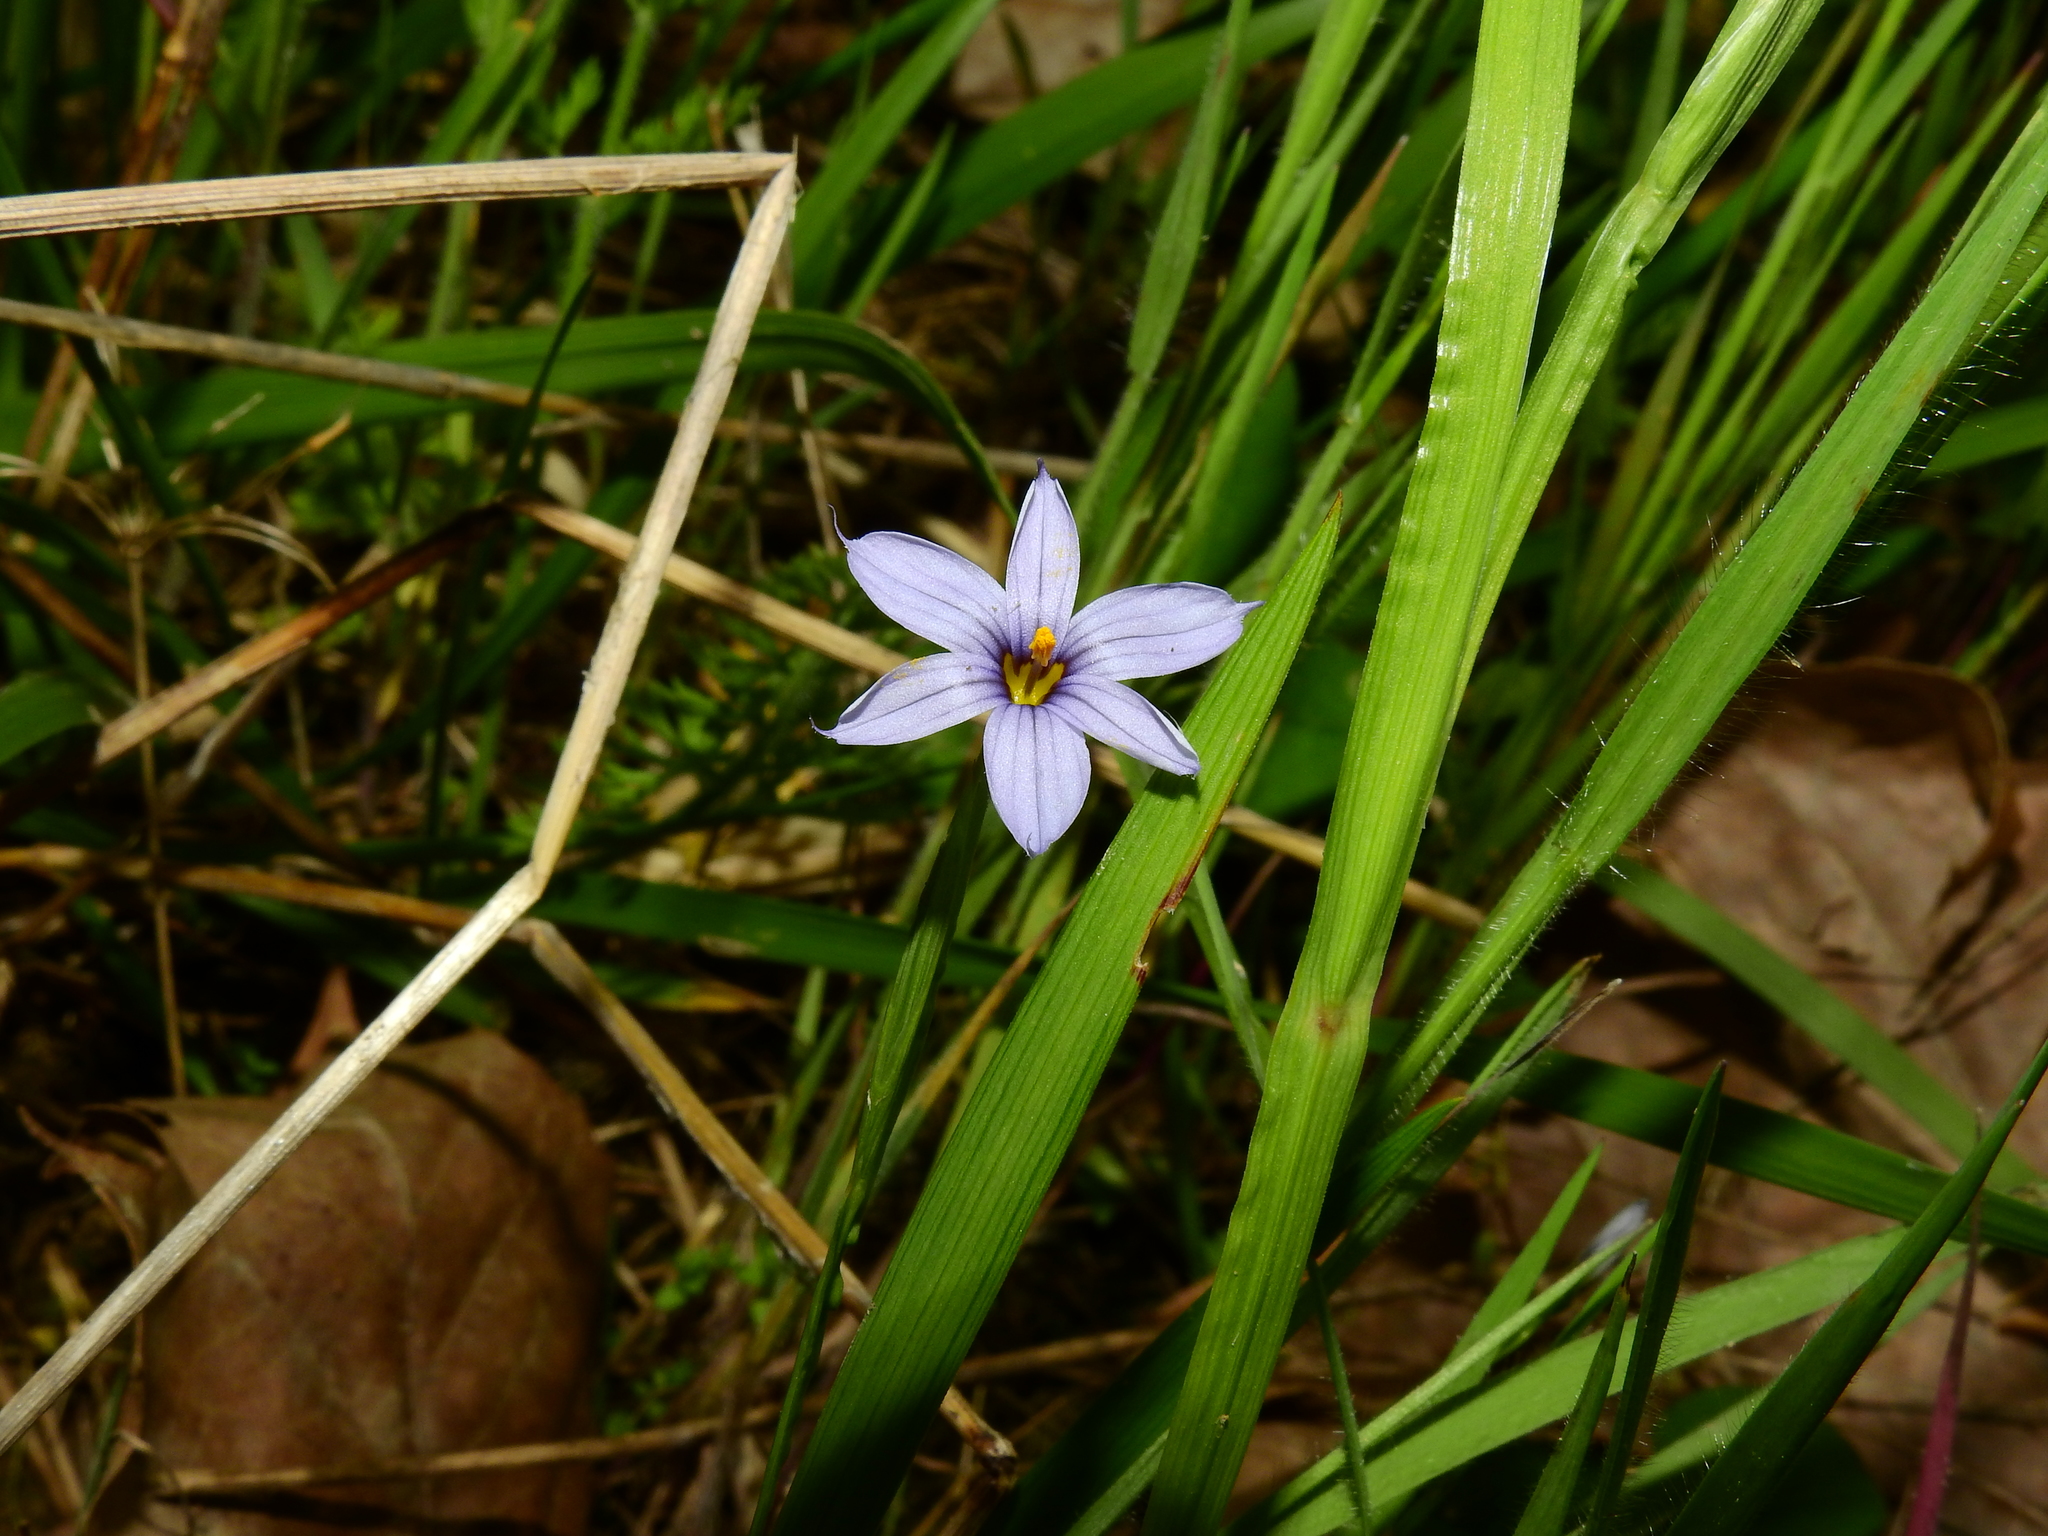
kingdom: Plantae
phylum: Tracheophyta
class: Liliopsida
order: Asparagales
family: Iridaceae
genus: Sisyrinchium
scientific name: Sisyrinchium angustifolium
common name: Narrow-leaf blue-eyed-grass
